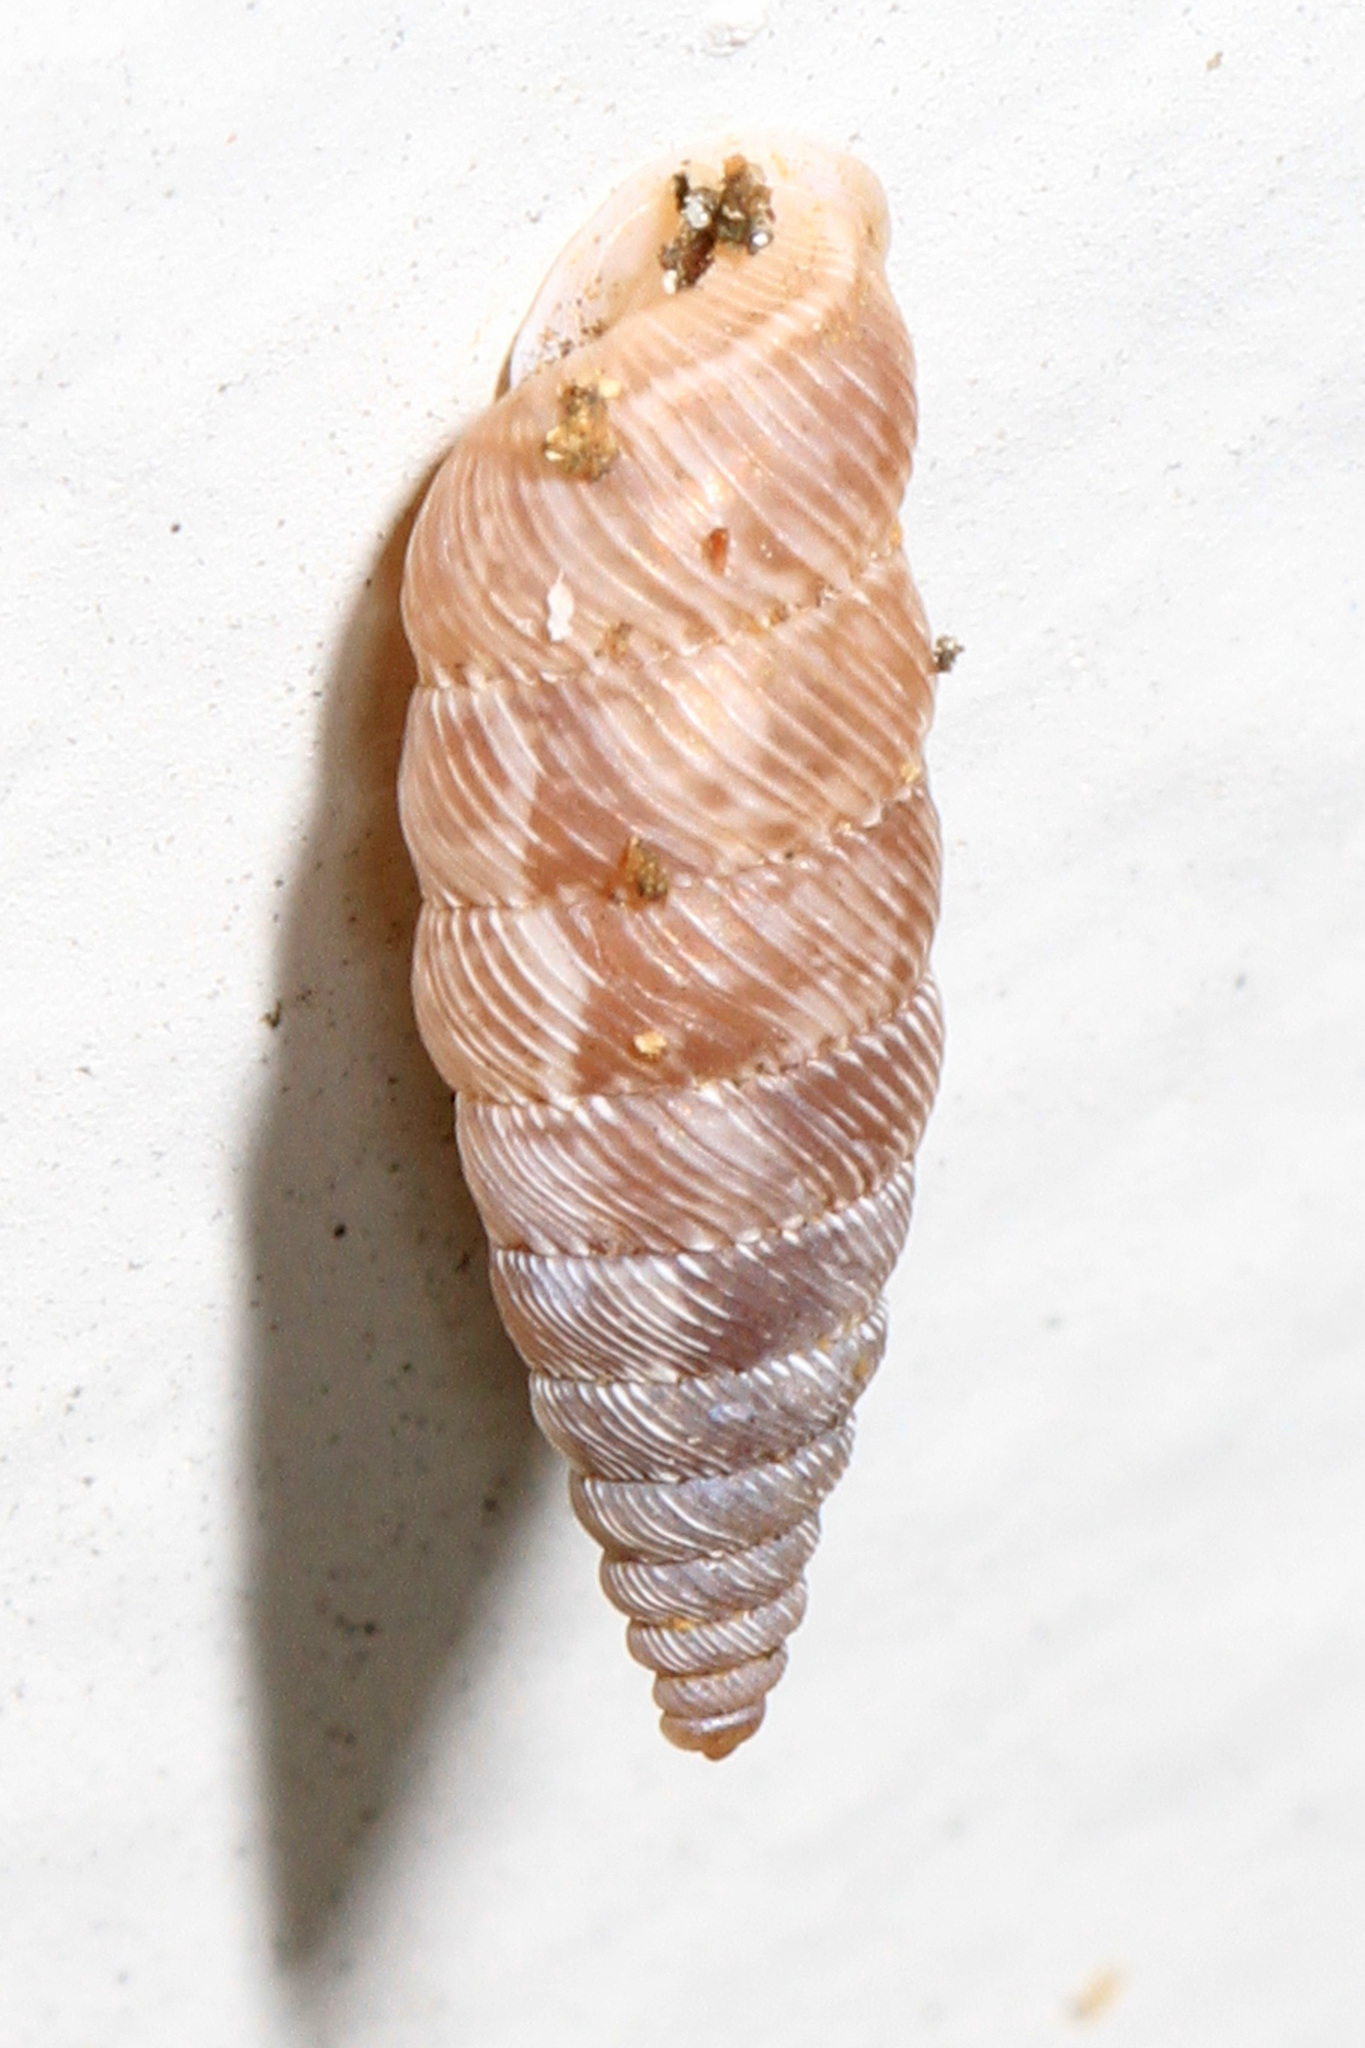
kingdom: Animalia
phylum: Mollusca
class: Gastropoda
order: Stylommatophora
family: Urocoptidae
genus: Microceramus
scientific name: Microceramus pontificus
